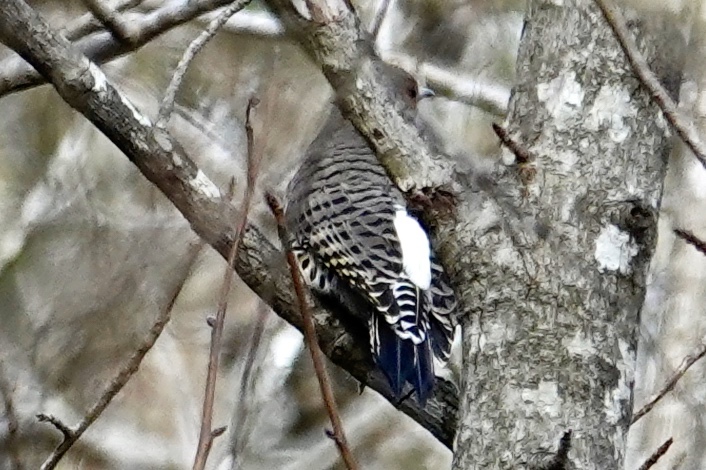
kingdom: Animalia
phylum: Chordata
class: Aves
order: Piciformes
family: Picidae
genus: Colaptes
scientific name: Colaptes auratus
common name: Northern flicker
